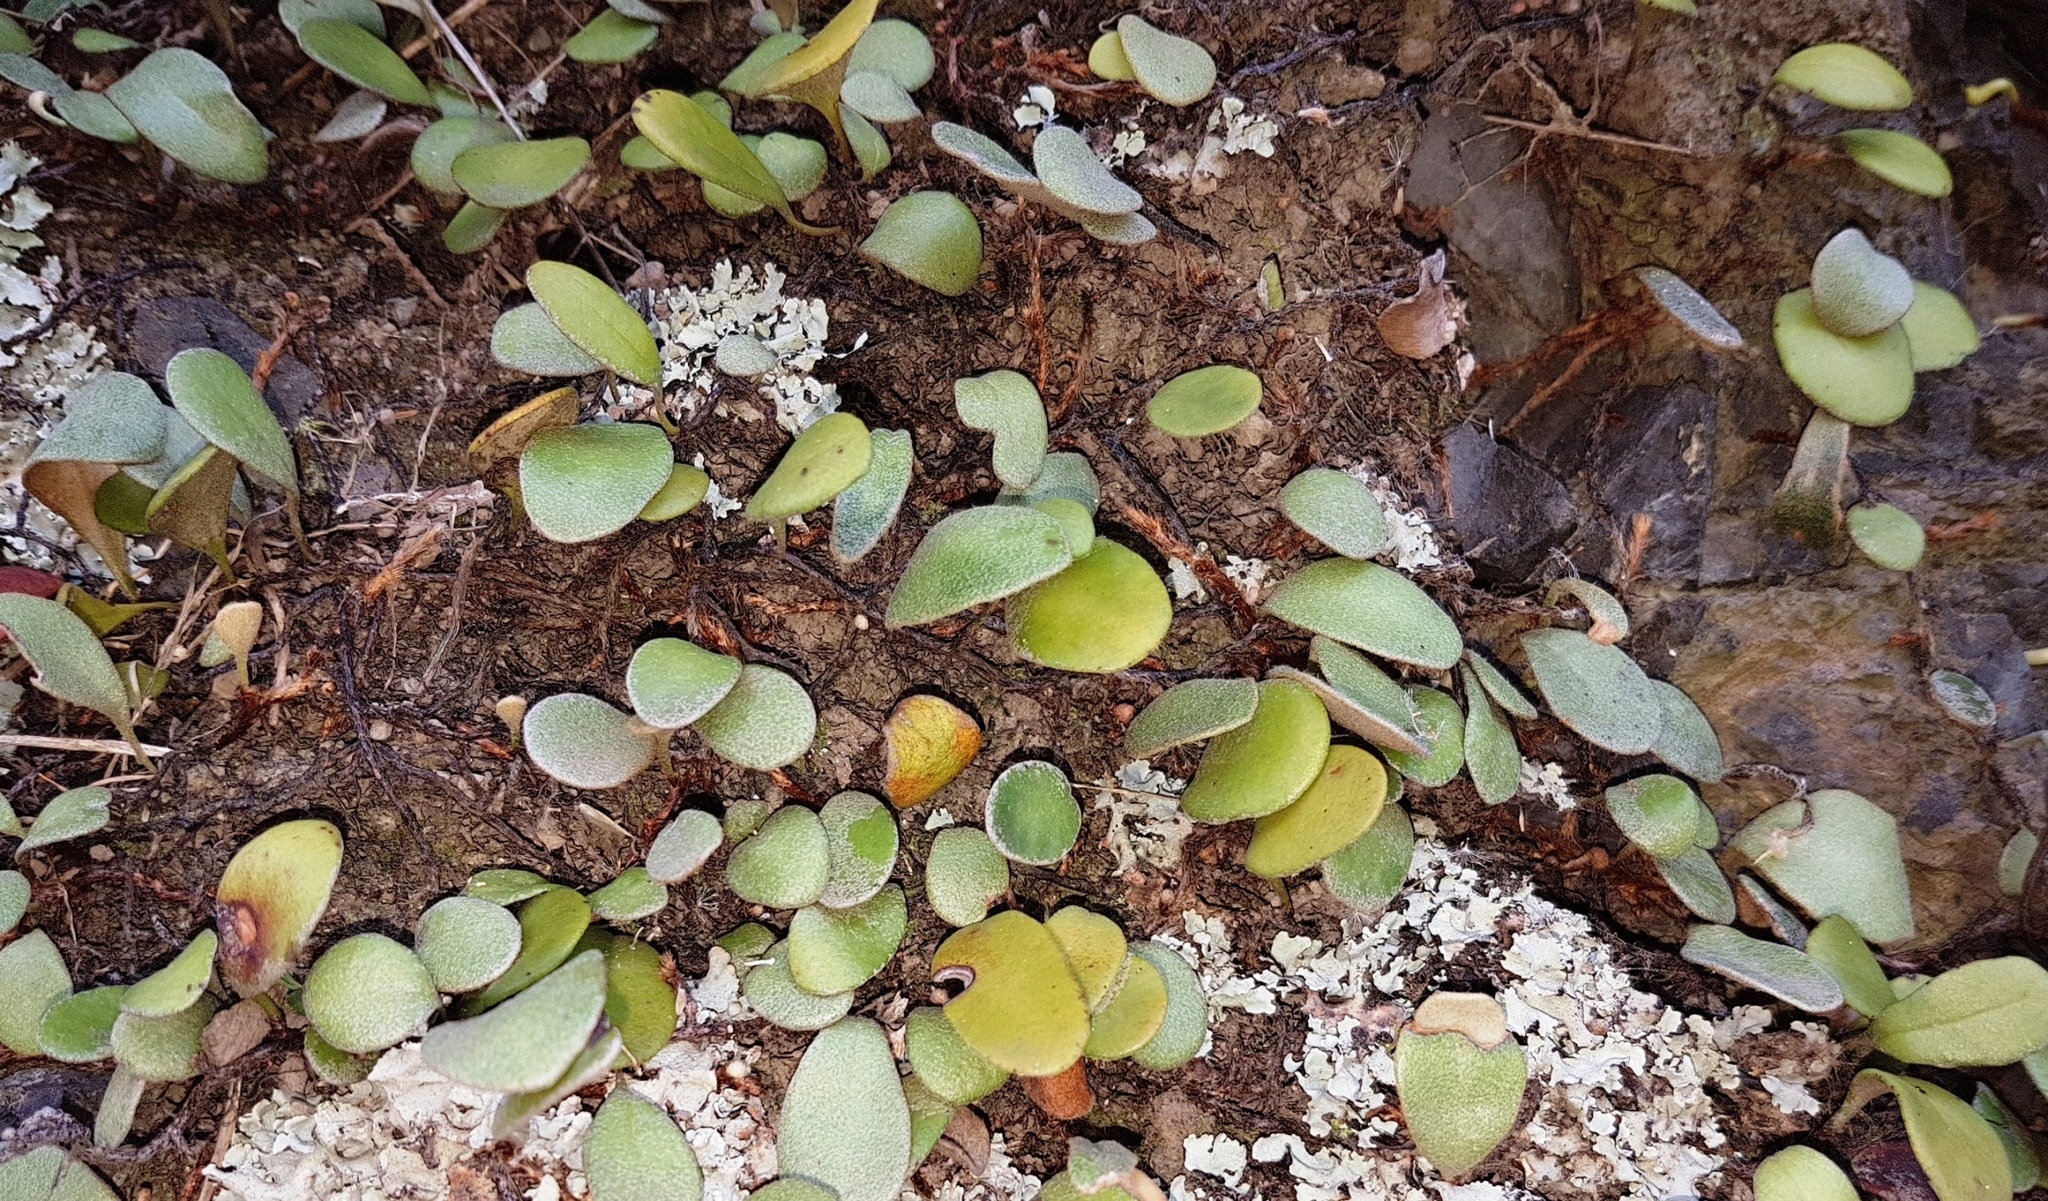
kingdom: Plantae
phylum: Tracheophyta
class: Polypodiopsida
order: Polypodiales
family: Polypodiaceae
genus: Pyrrosia
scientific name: Pyrrosia eleagnifolia
